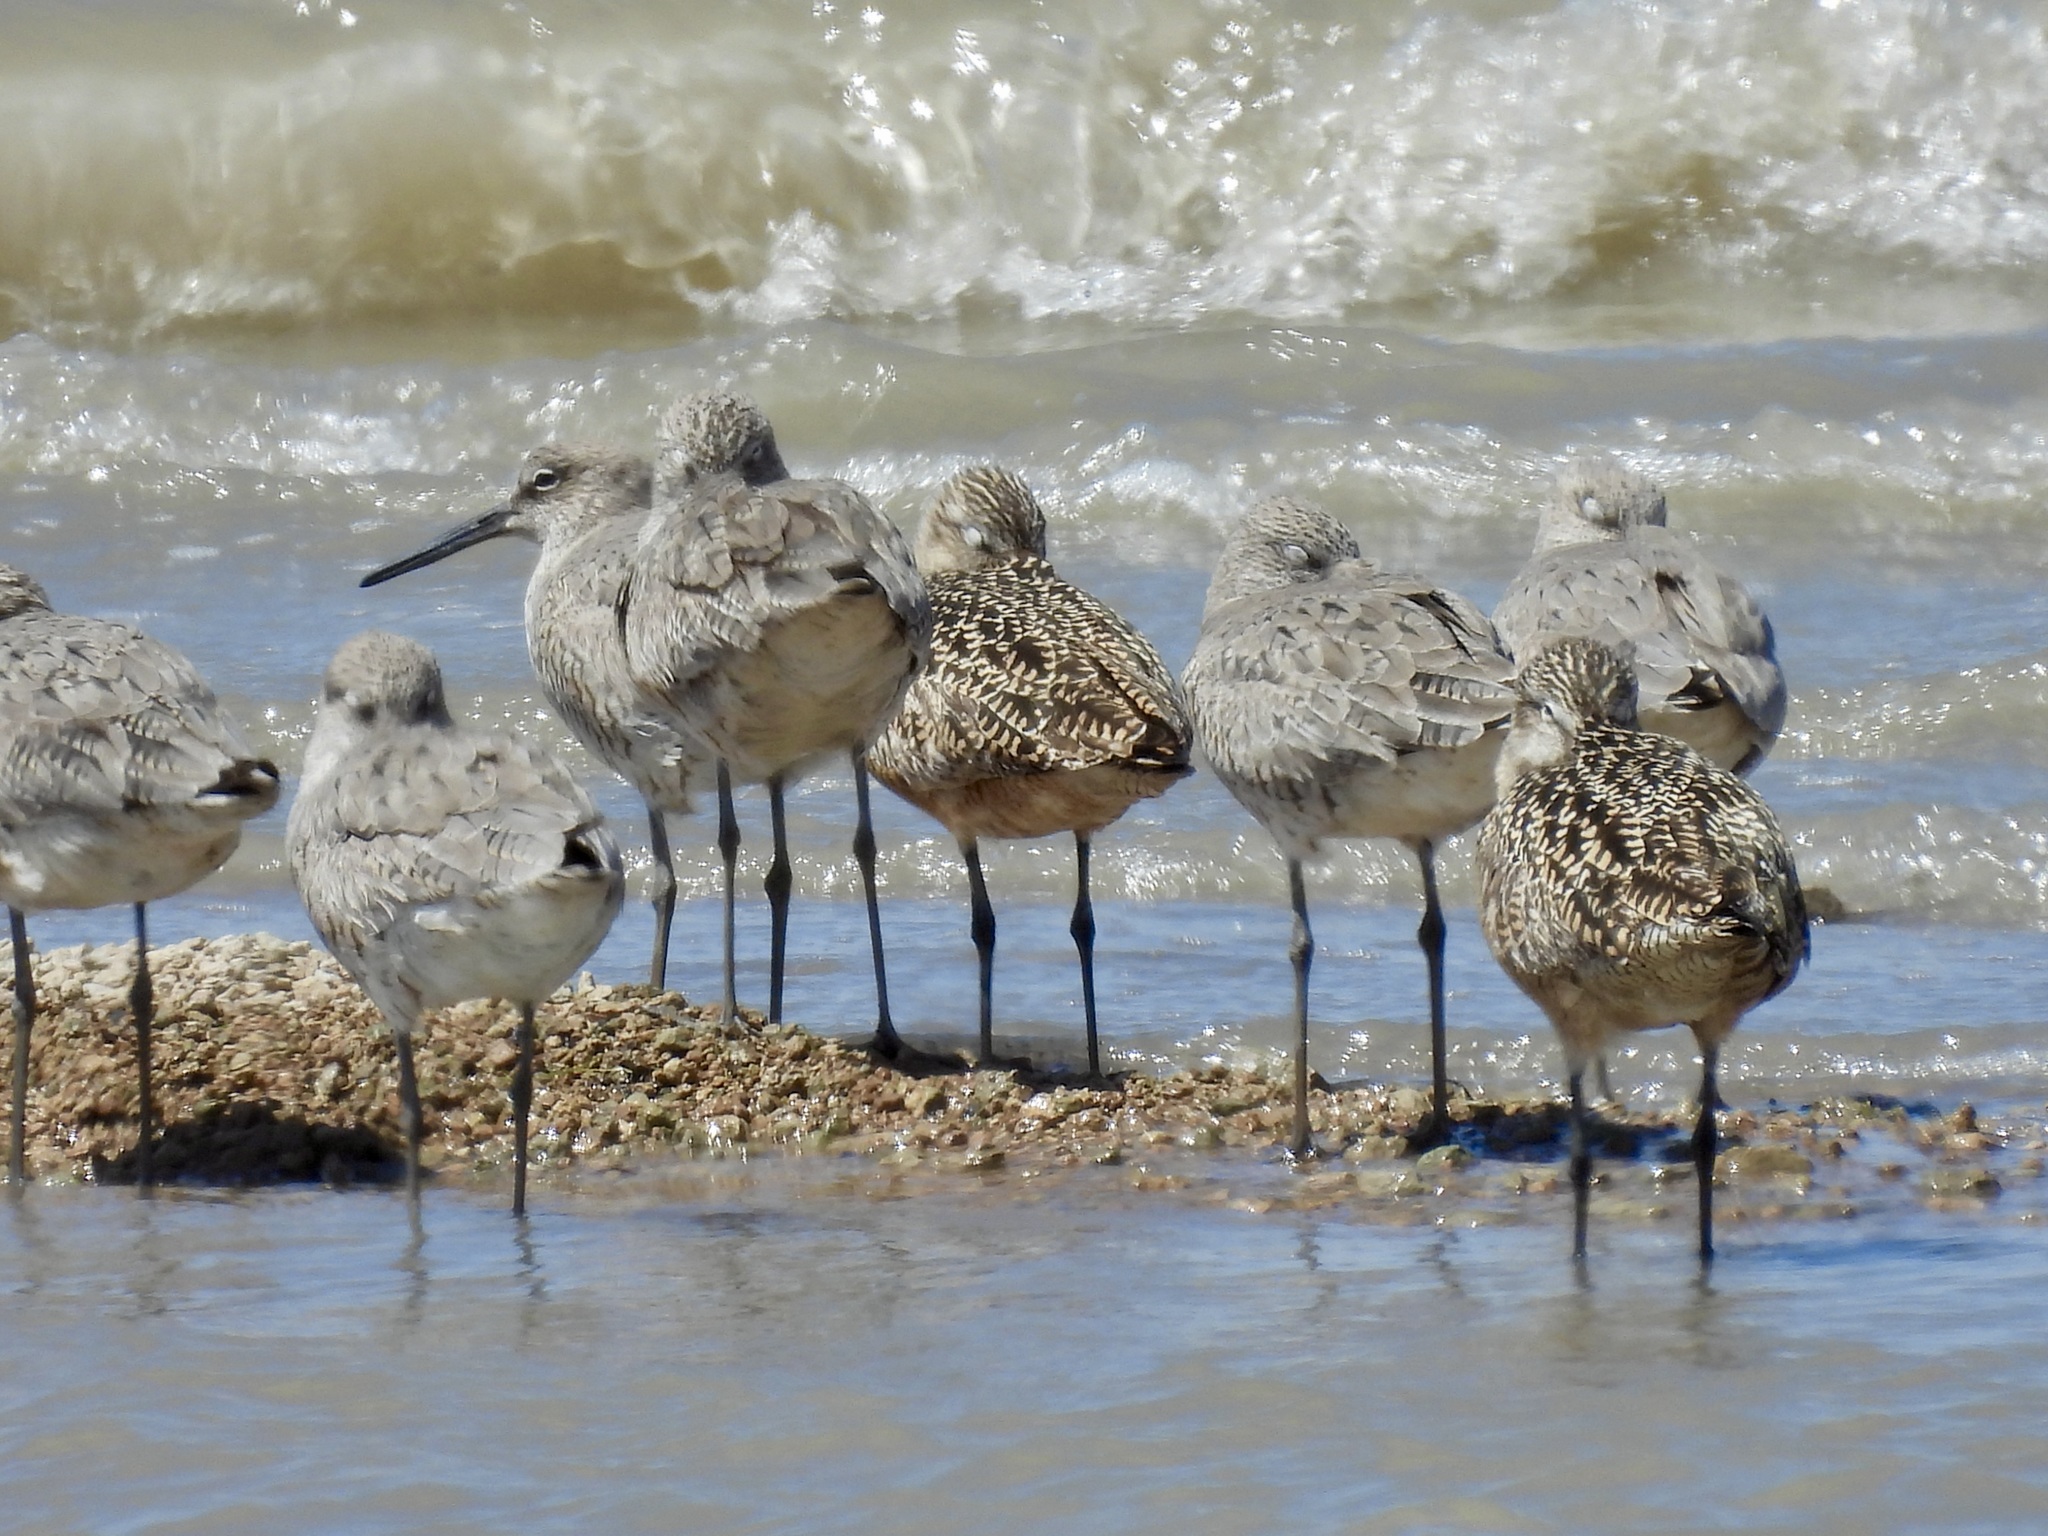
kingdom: Animalia
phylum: Chordata
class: Aves
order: Charadriiformes
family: Scolopacidae
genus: Tringa
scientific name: Tringa semipalmata
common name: Willet
